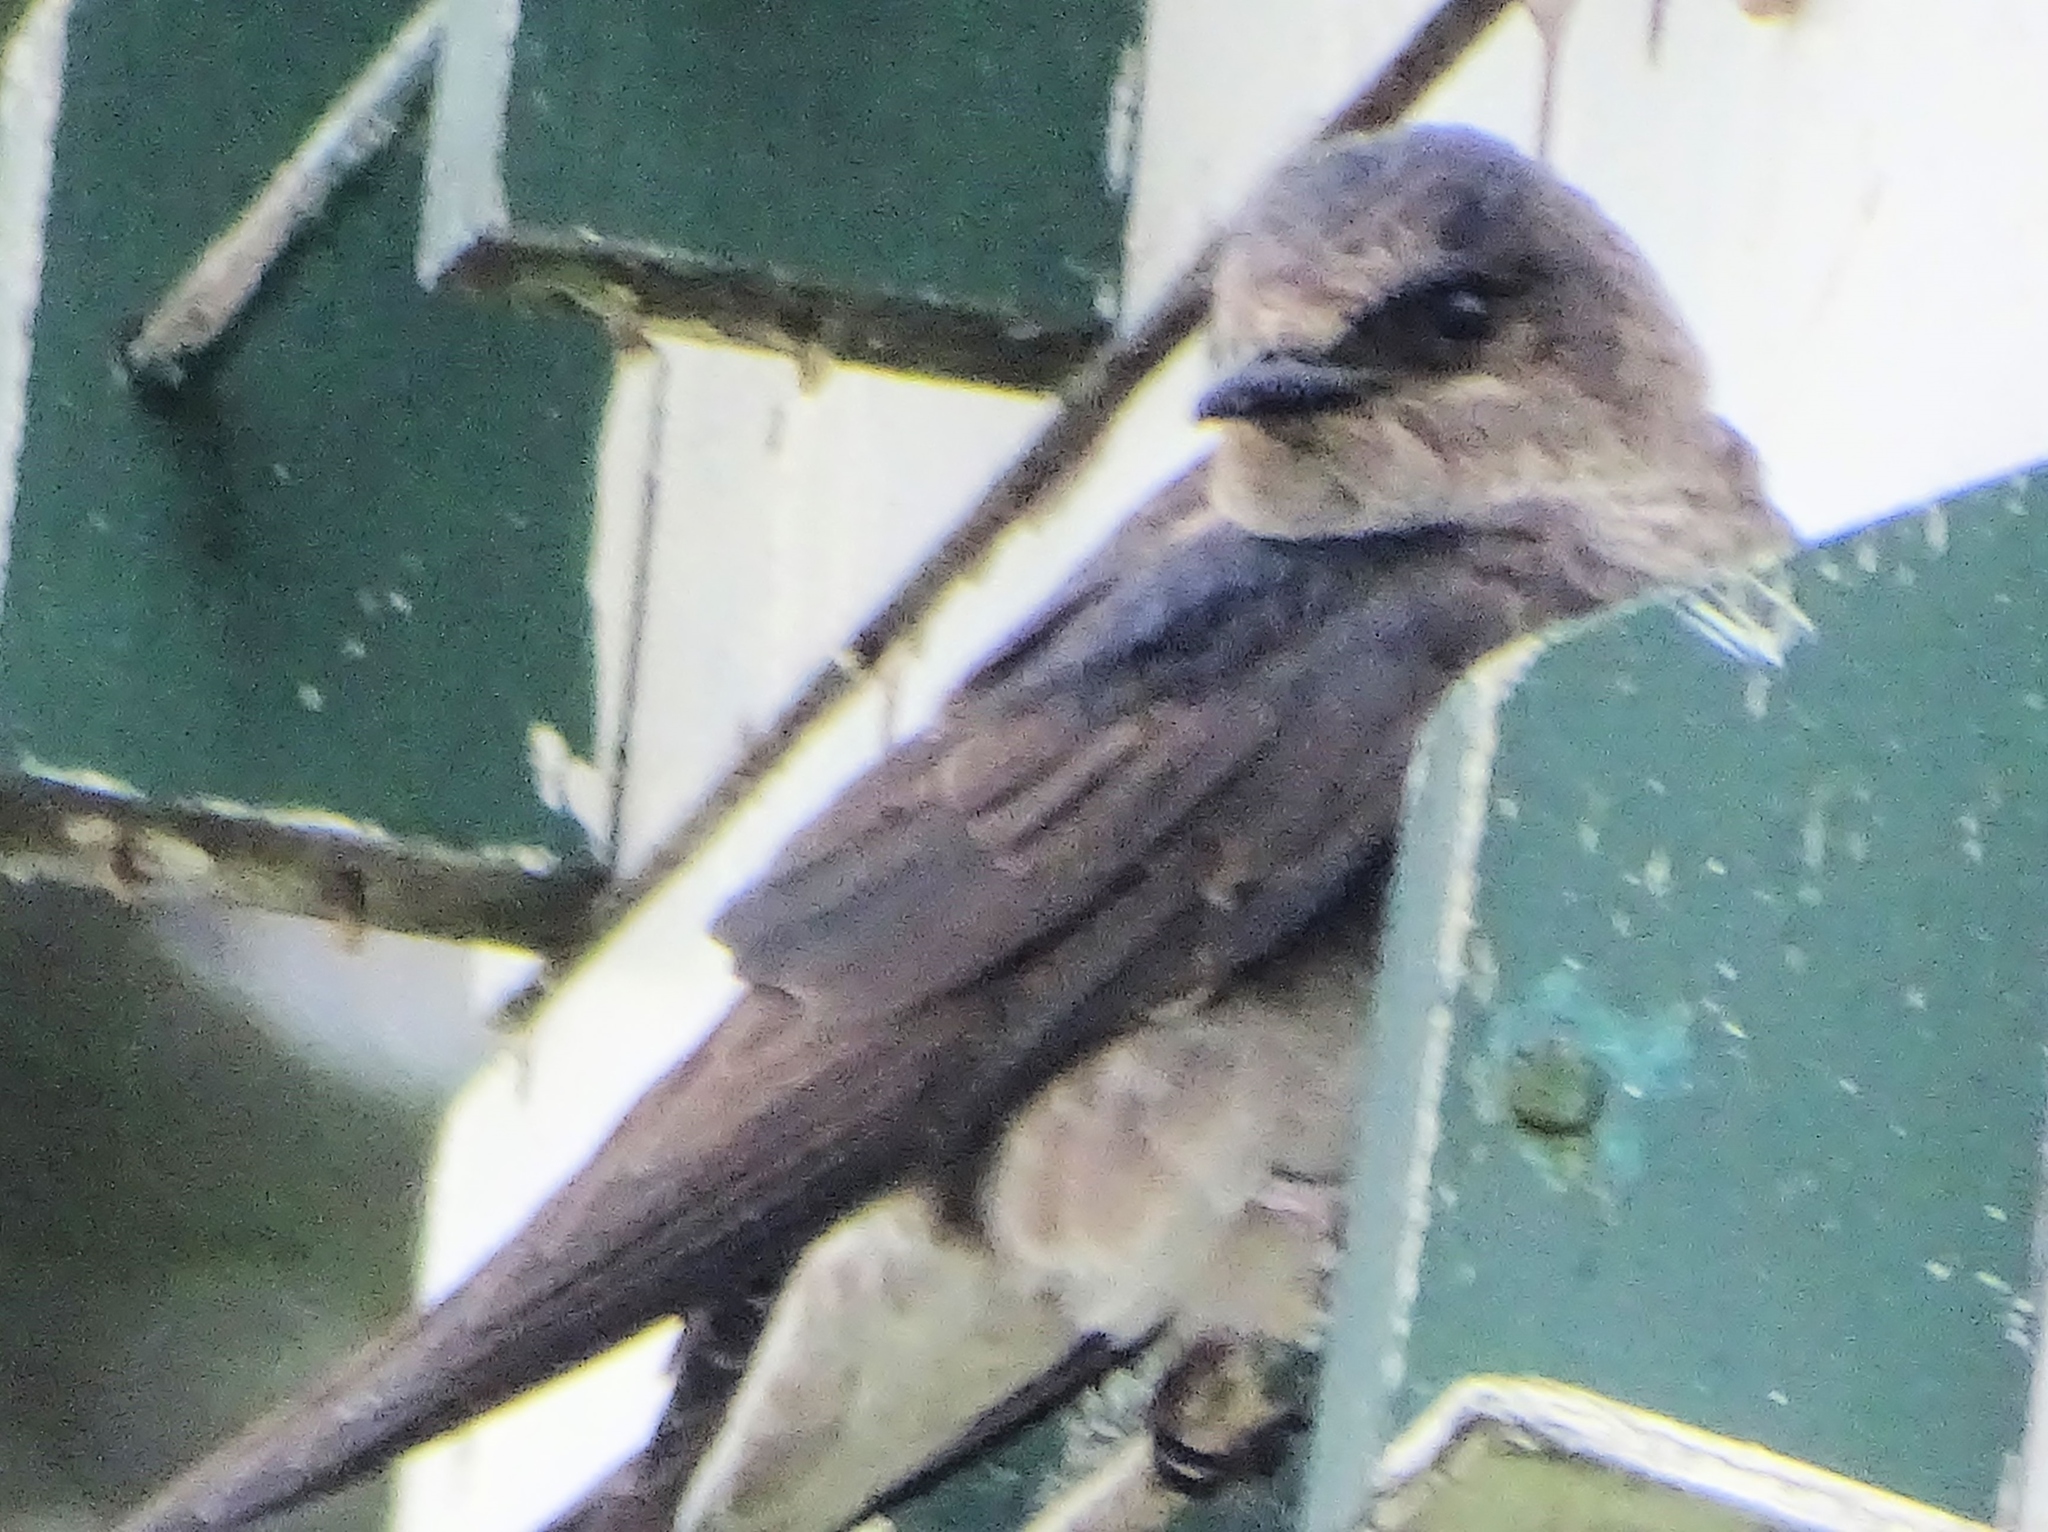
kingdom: Animalia
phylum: Chordata
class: Aves
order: Passeriformes
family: Hirundinidae
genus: Progne
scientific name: Progne subis
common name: Purple martin
